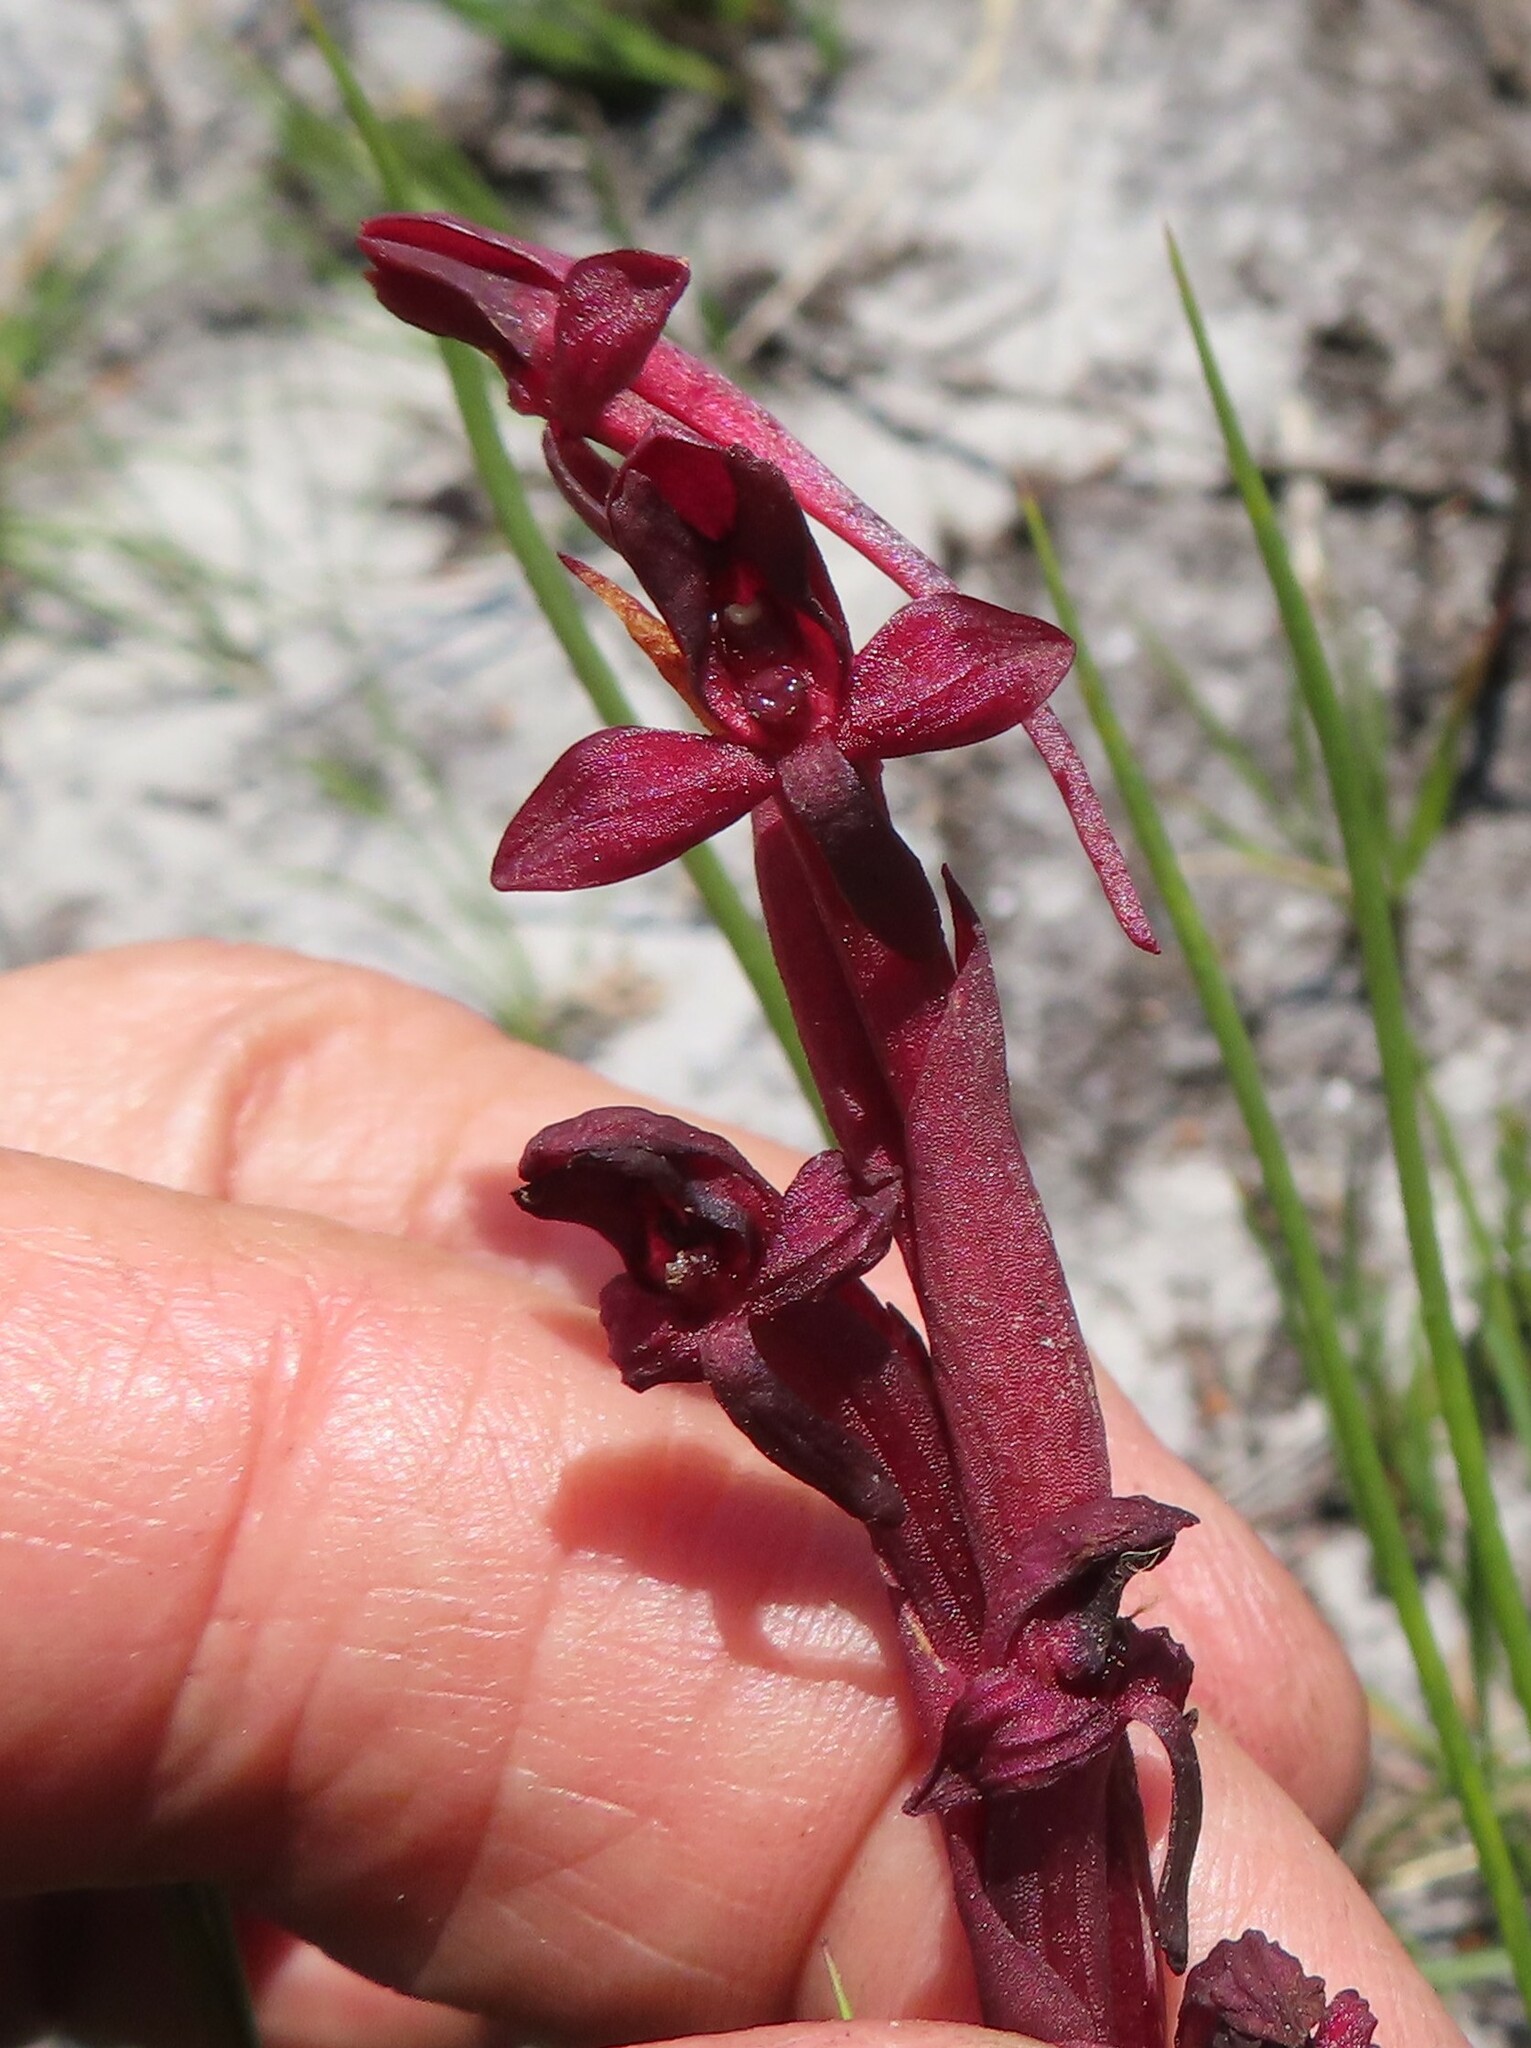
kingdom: Plantae
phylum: Tracheophyta
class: Liliopsida
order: Asparagales
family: Orchidaceae
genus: Disa
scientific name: Disa ophrydea
